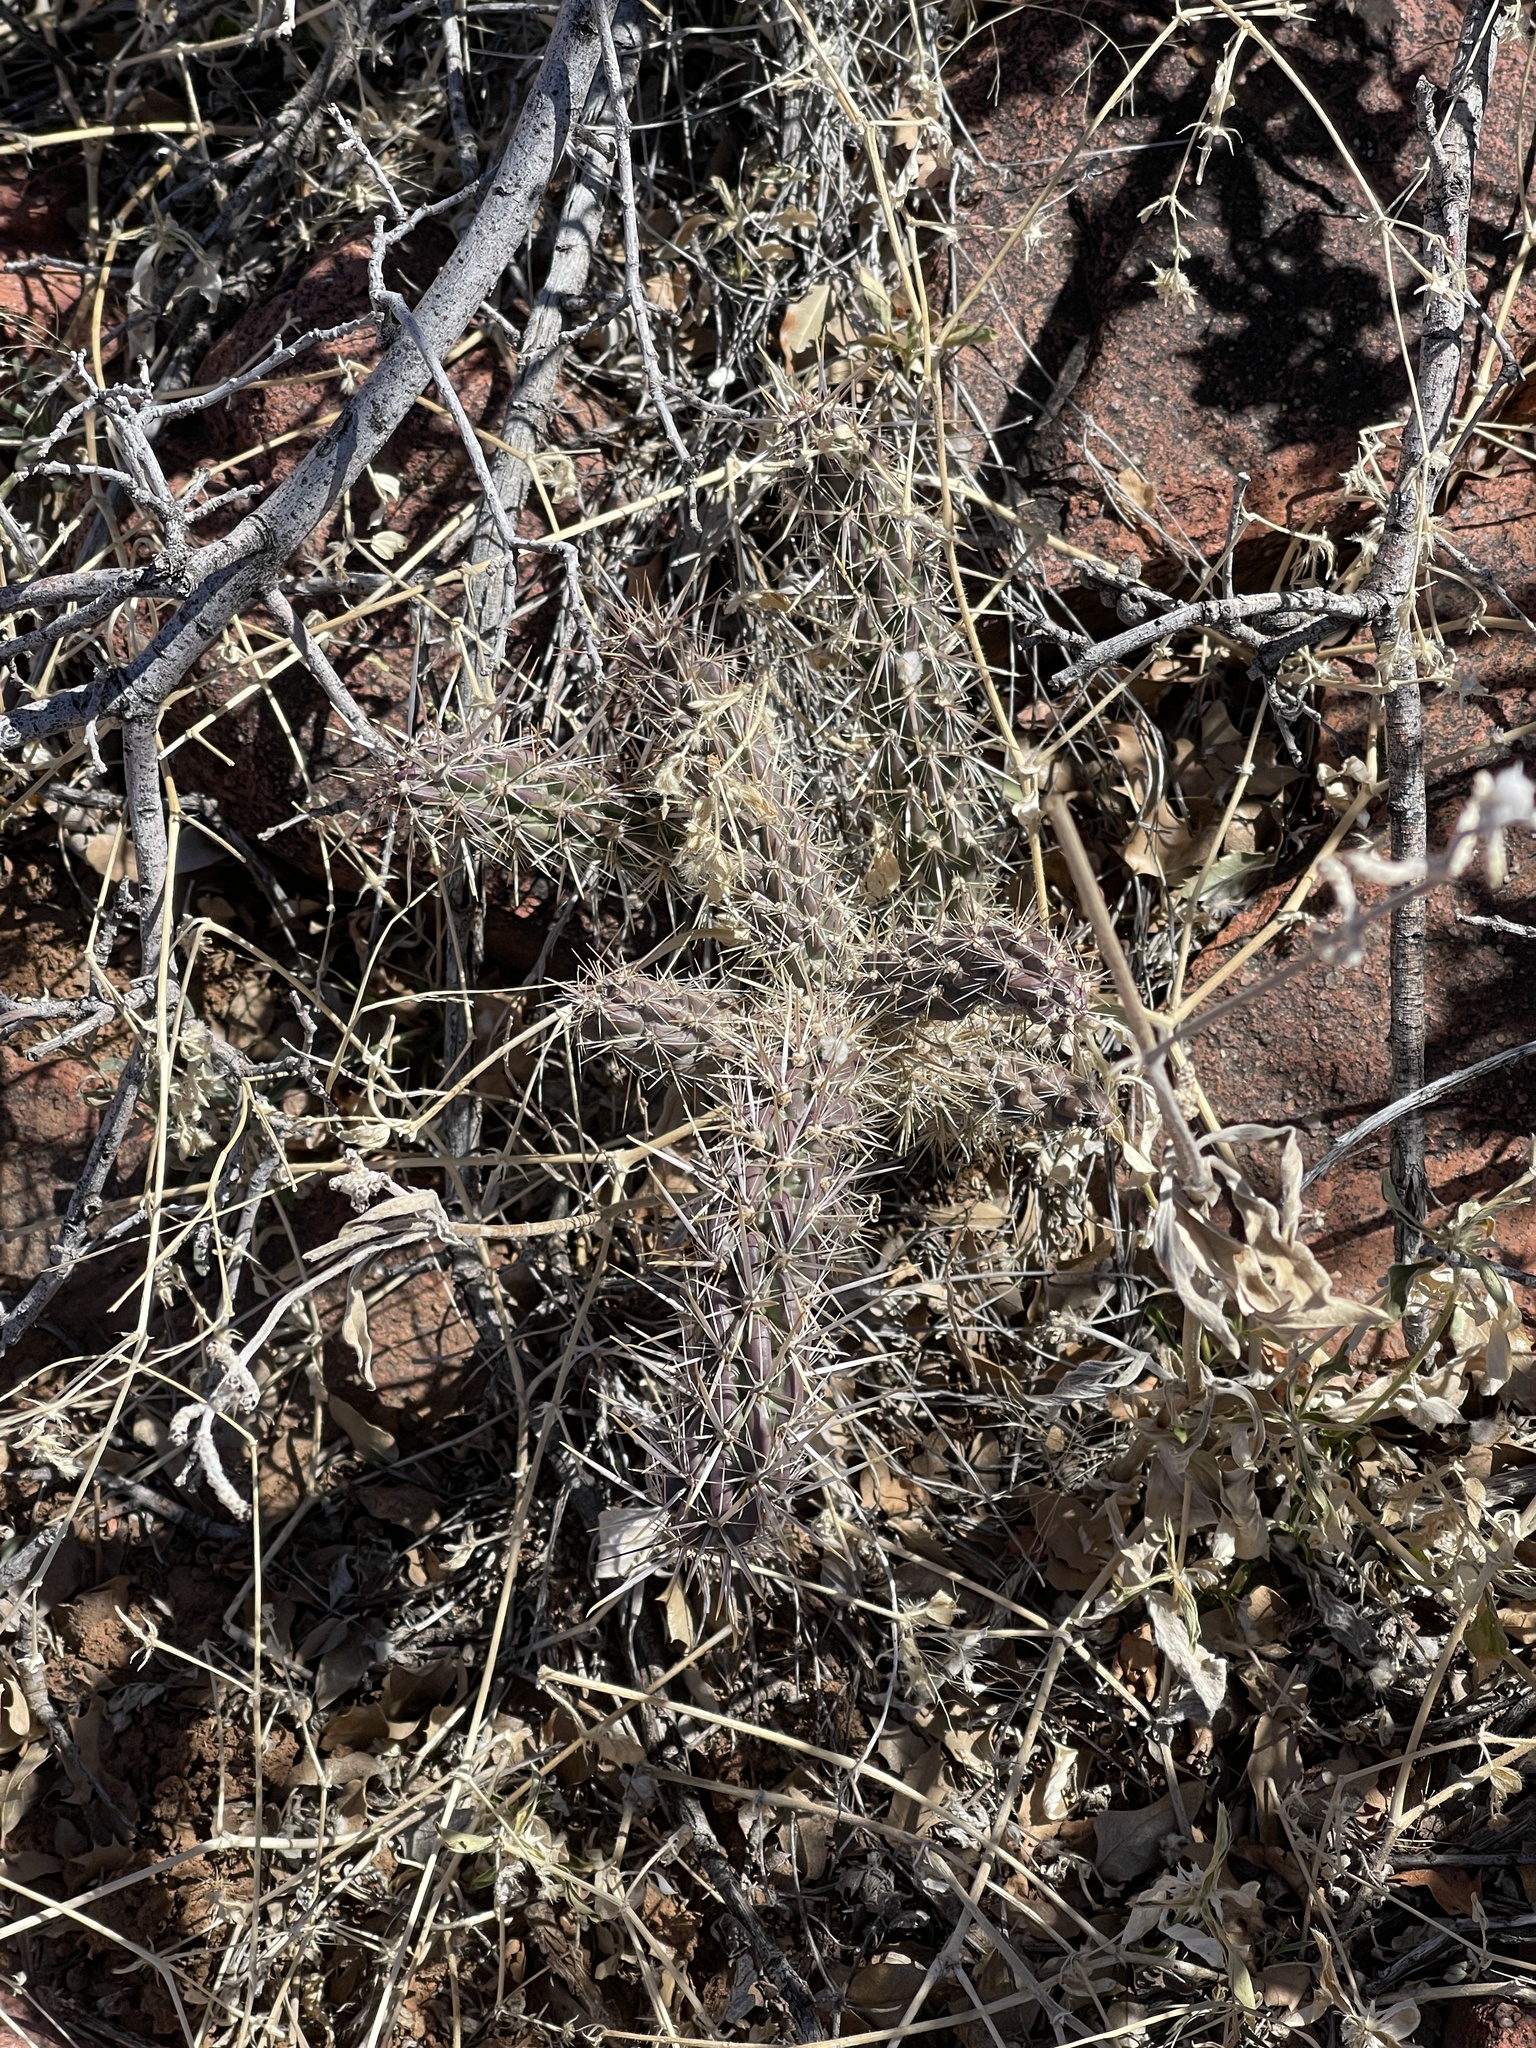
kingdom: Plantae
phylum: Tracheophyta
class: Magnoliopsida
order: Caryophyllales
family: Cactaceae
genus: Cylindropuntia
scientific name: Cylindropuntia imbricata
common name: Candelabrum cactus
